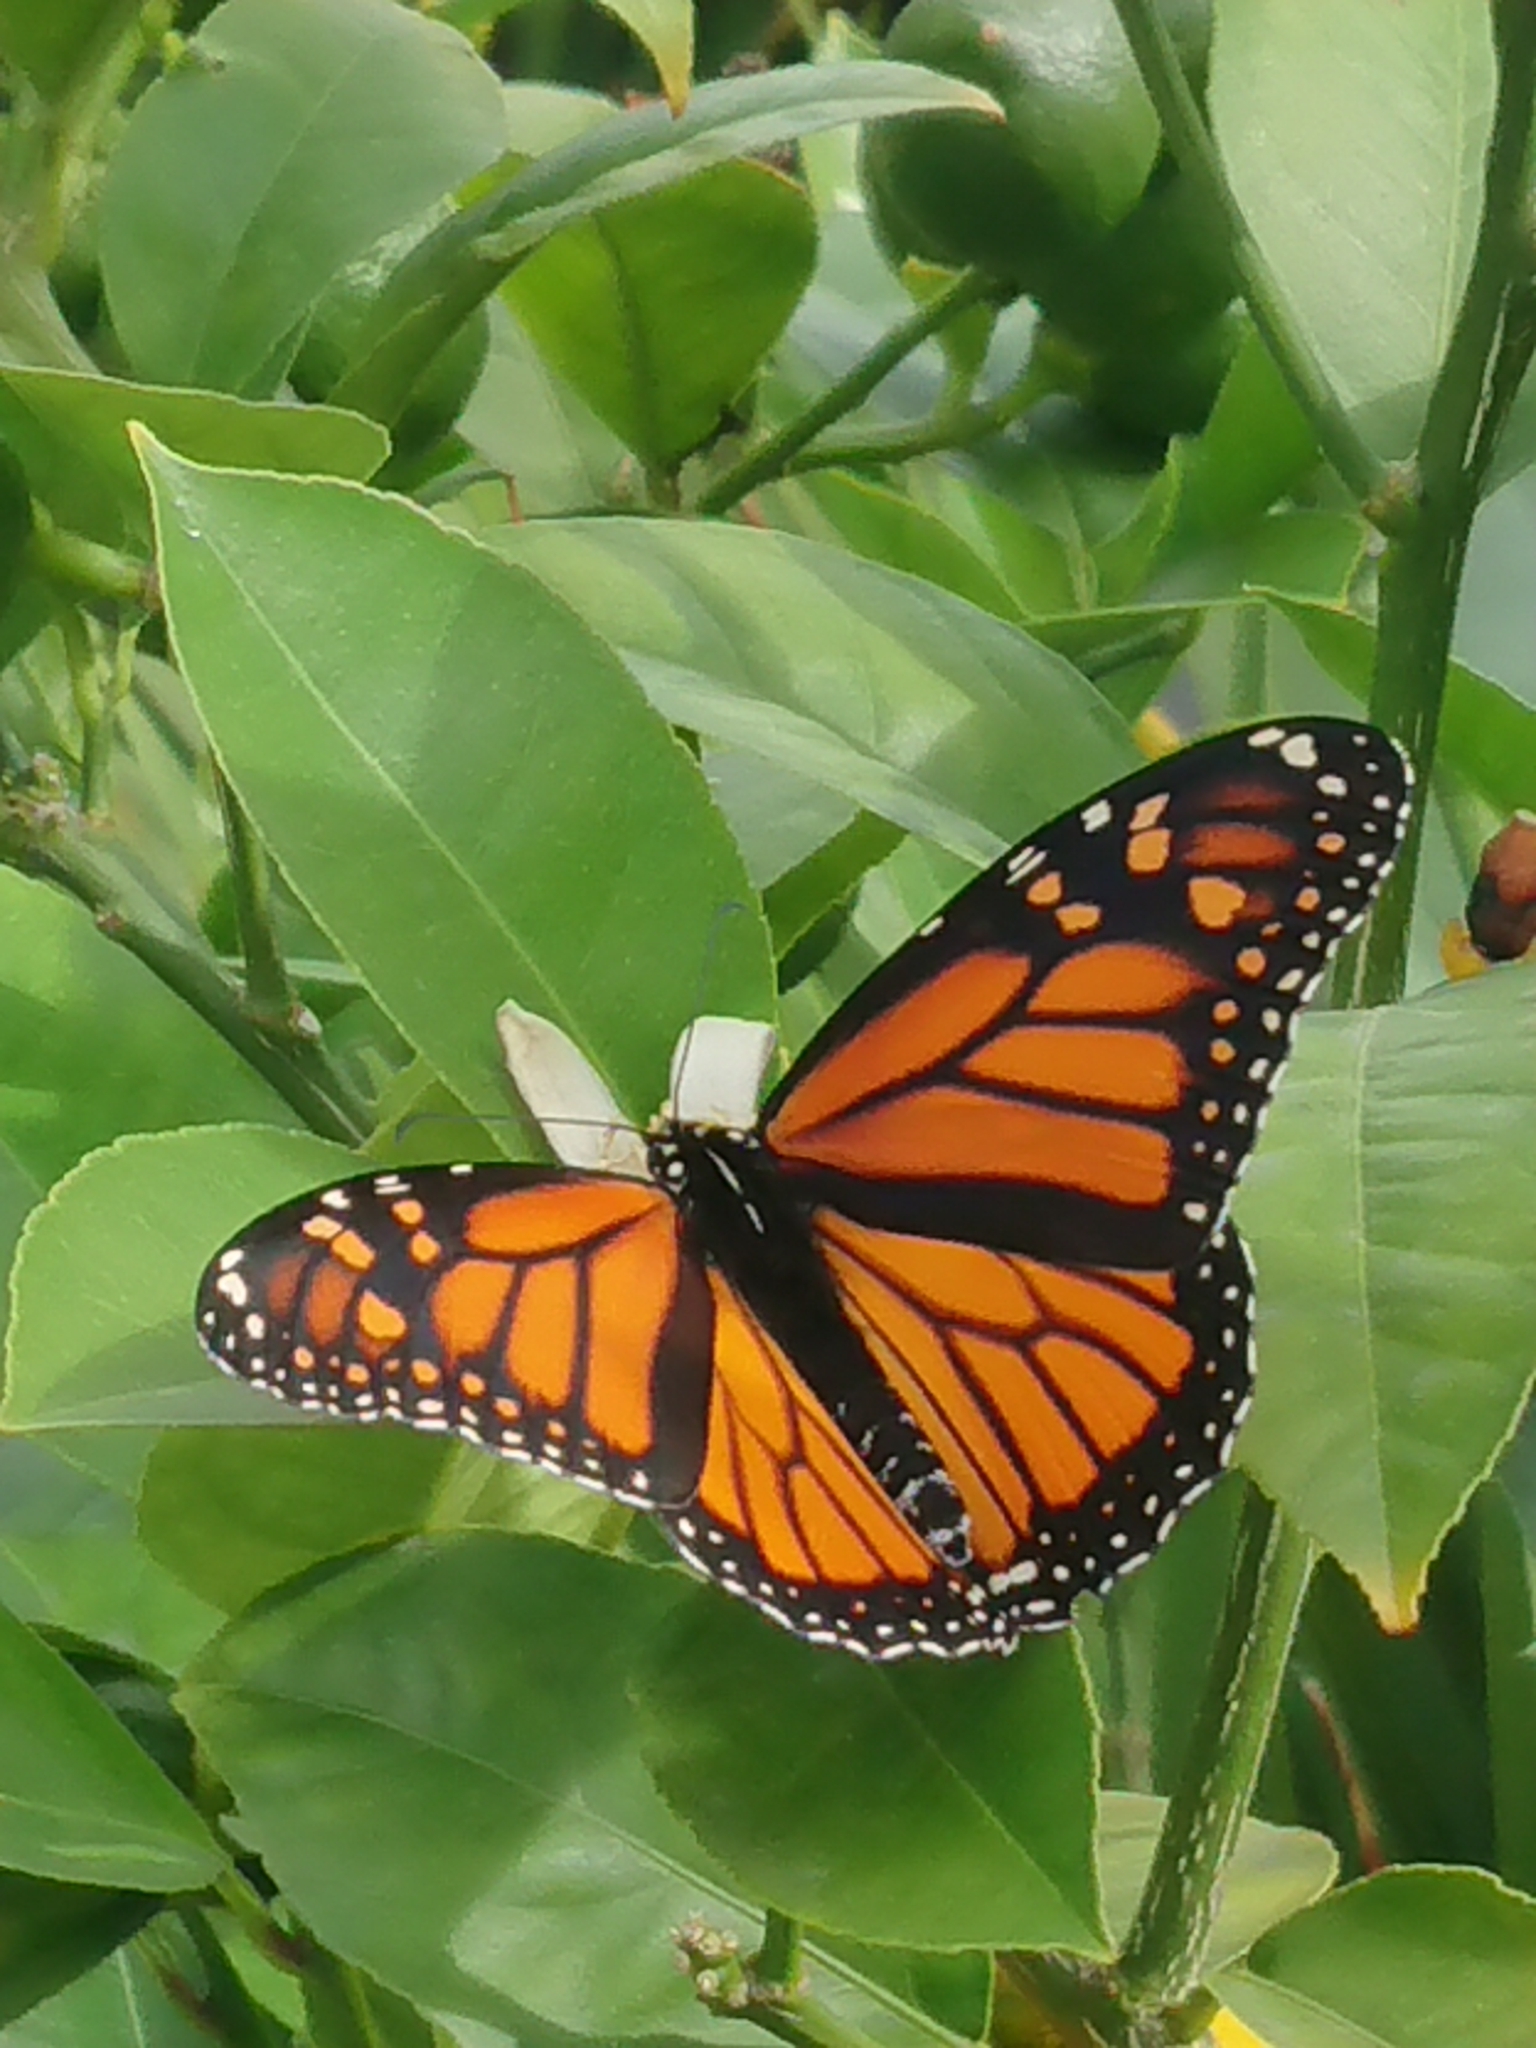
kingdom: Animalia
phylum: Arthropoda
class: Insecta
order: Lepidoptera
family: Nymphalidae
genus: Danaus
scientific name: Danaus plexippus
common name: Monarch
